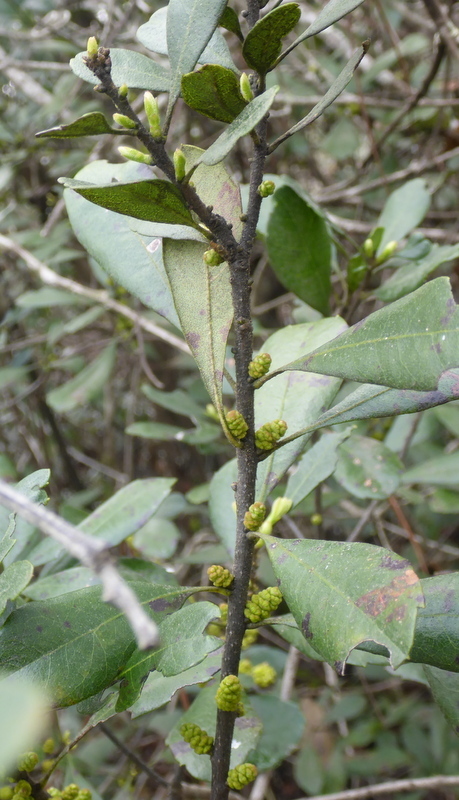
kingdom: Plantae
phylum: Tracheophyta
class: Magnoliopsida
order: Fagales
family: Myricaceae
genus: Morella
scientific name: Morella caroliniensis
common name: Evergreen bayberry
